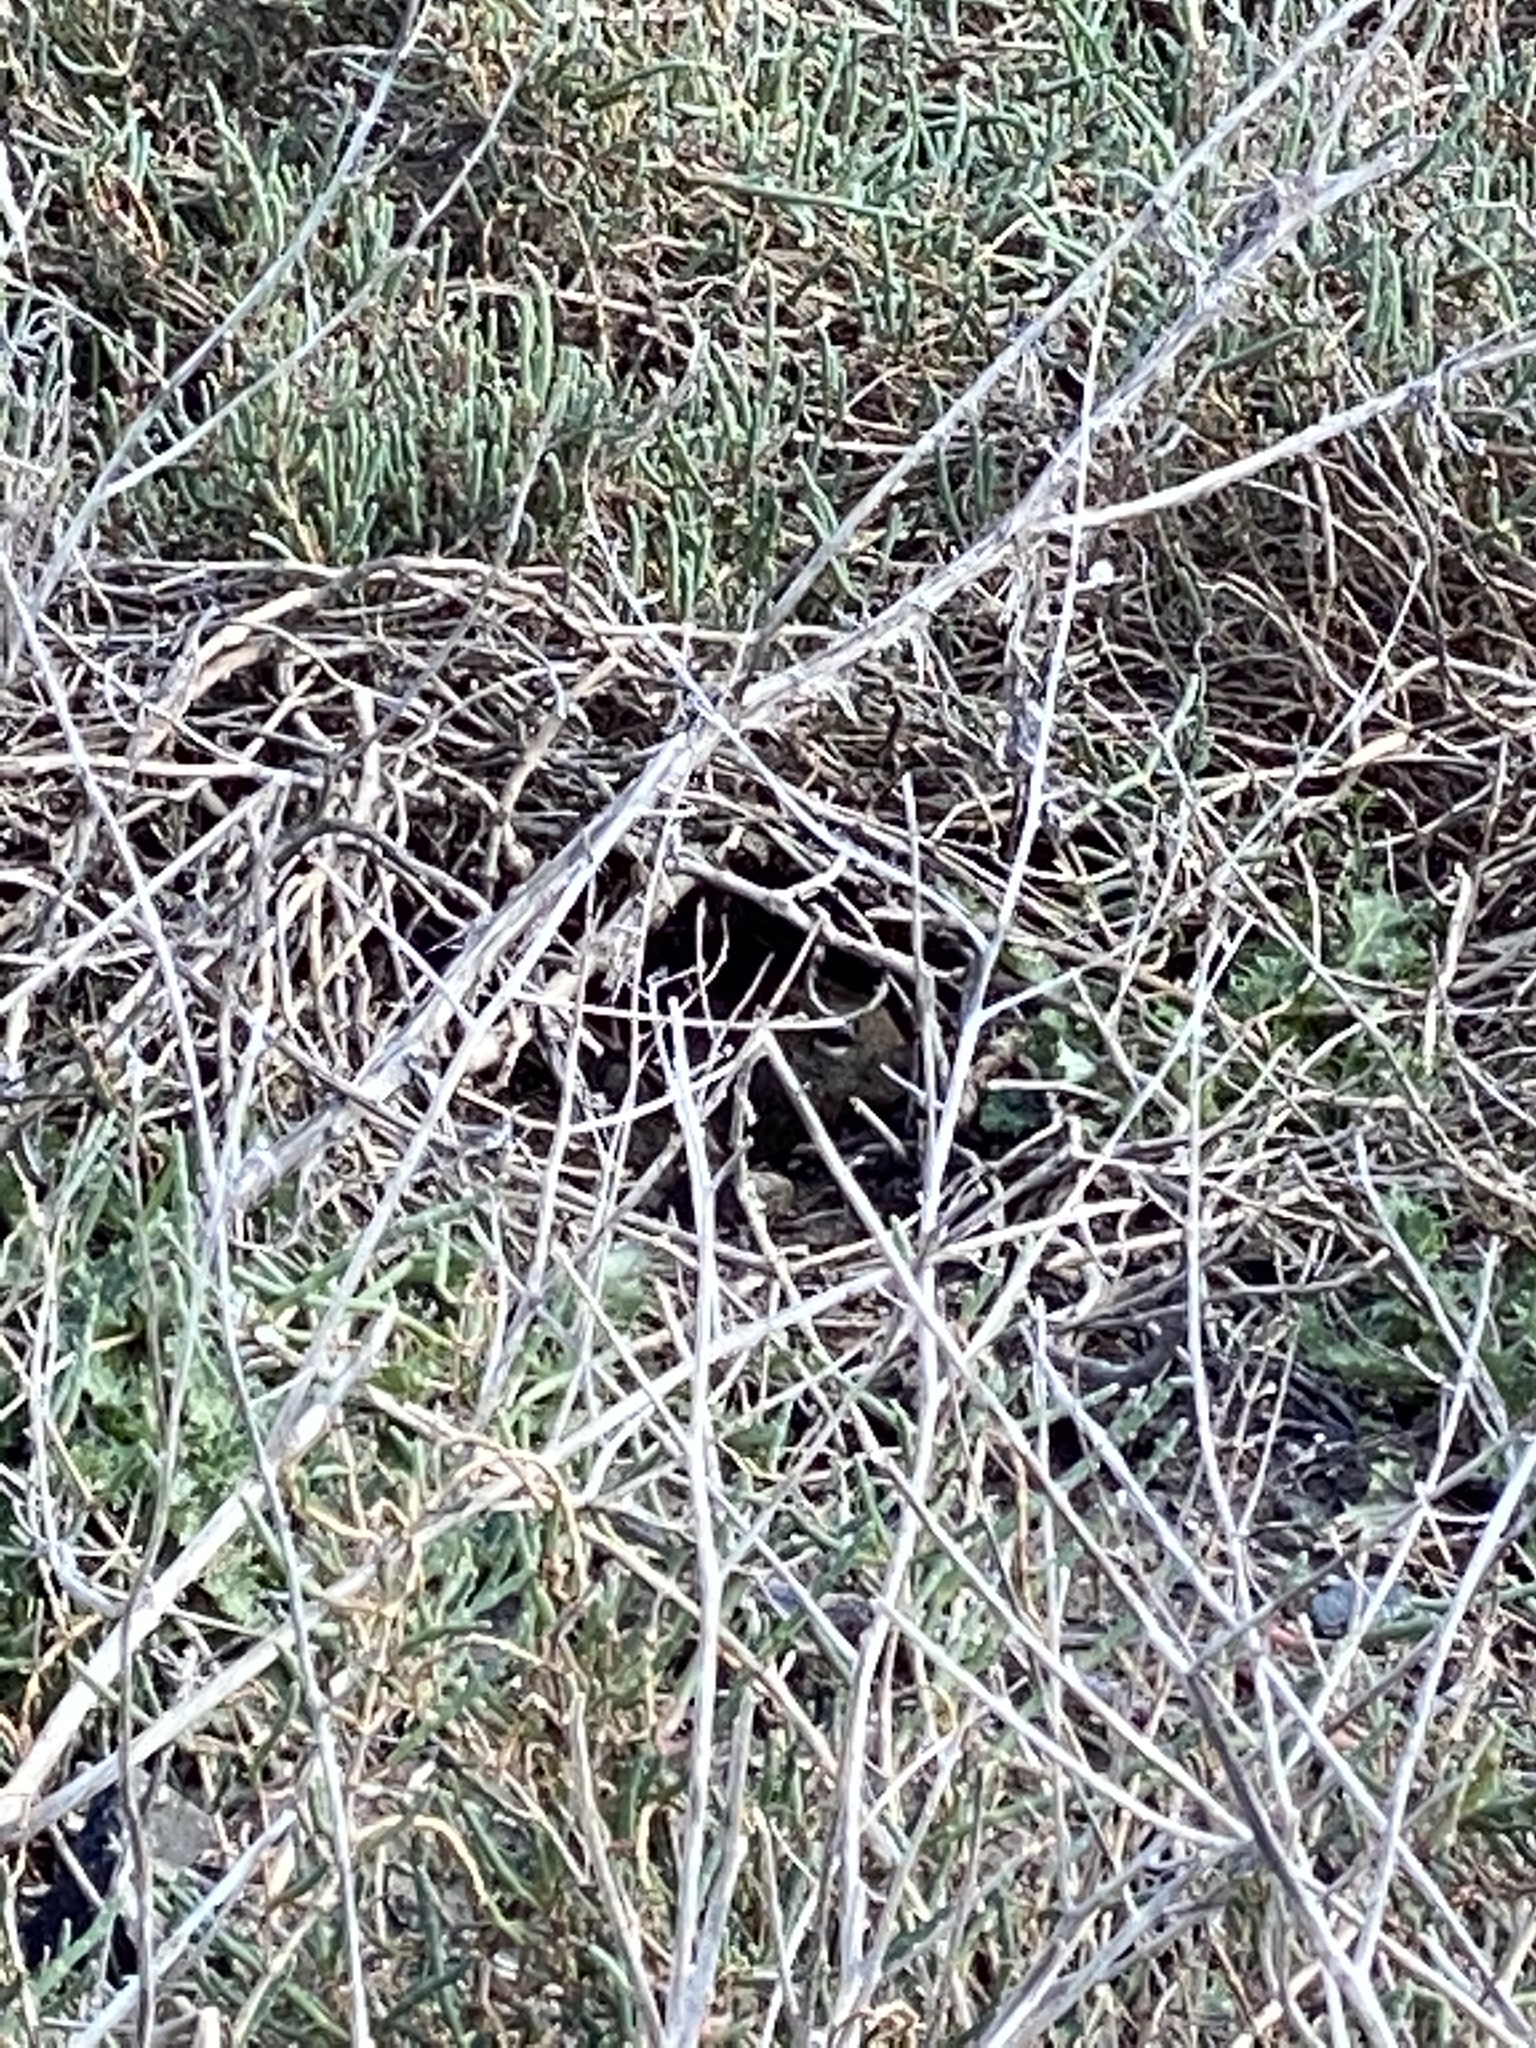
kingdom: Animalia
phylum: Chordata
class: Mammalia
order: Rodentia
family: Sciuridae
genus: Otospermophilus
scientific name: Otospermophilus beecheyi
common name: California ground squirrel
